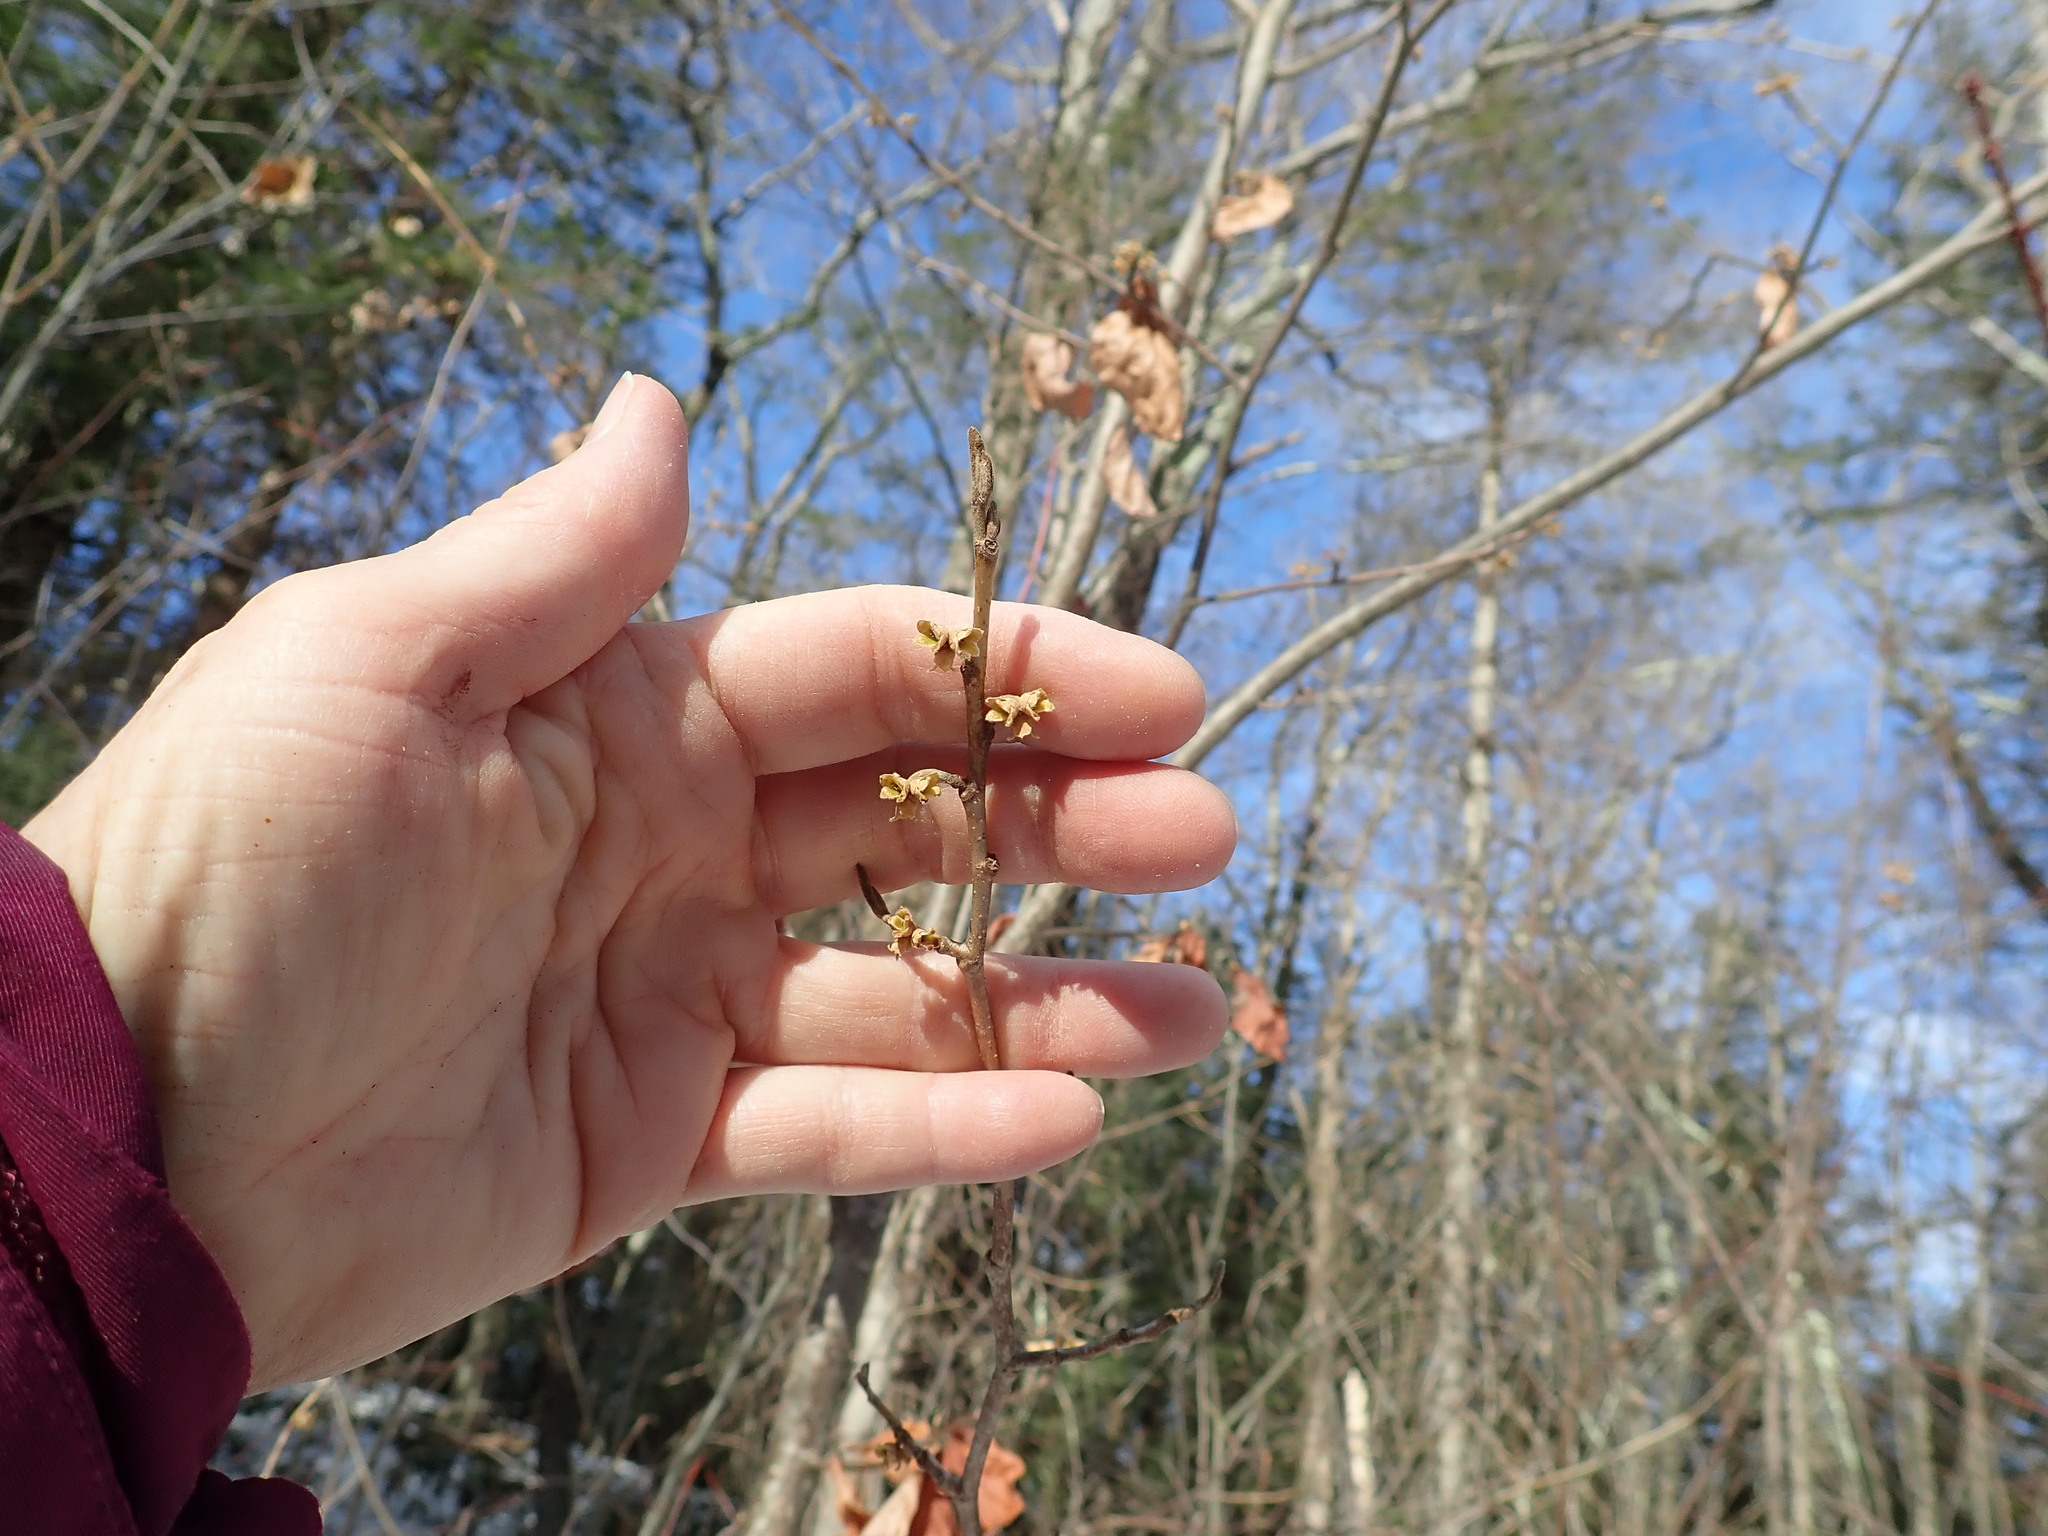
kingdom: Plantae
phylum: Tracheophyta
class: Magnoliopsida
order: Saxifragales
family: Hamamelidaceae
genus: Hamamelis
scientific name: Hamamelis virginiana
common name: Witch-hazel
